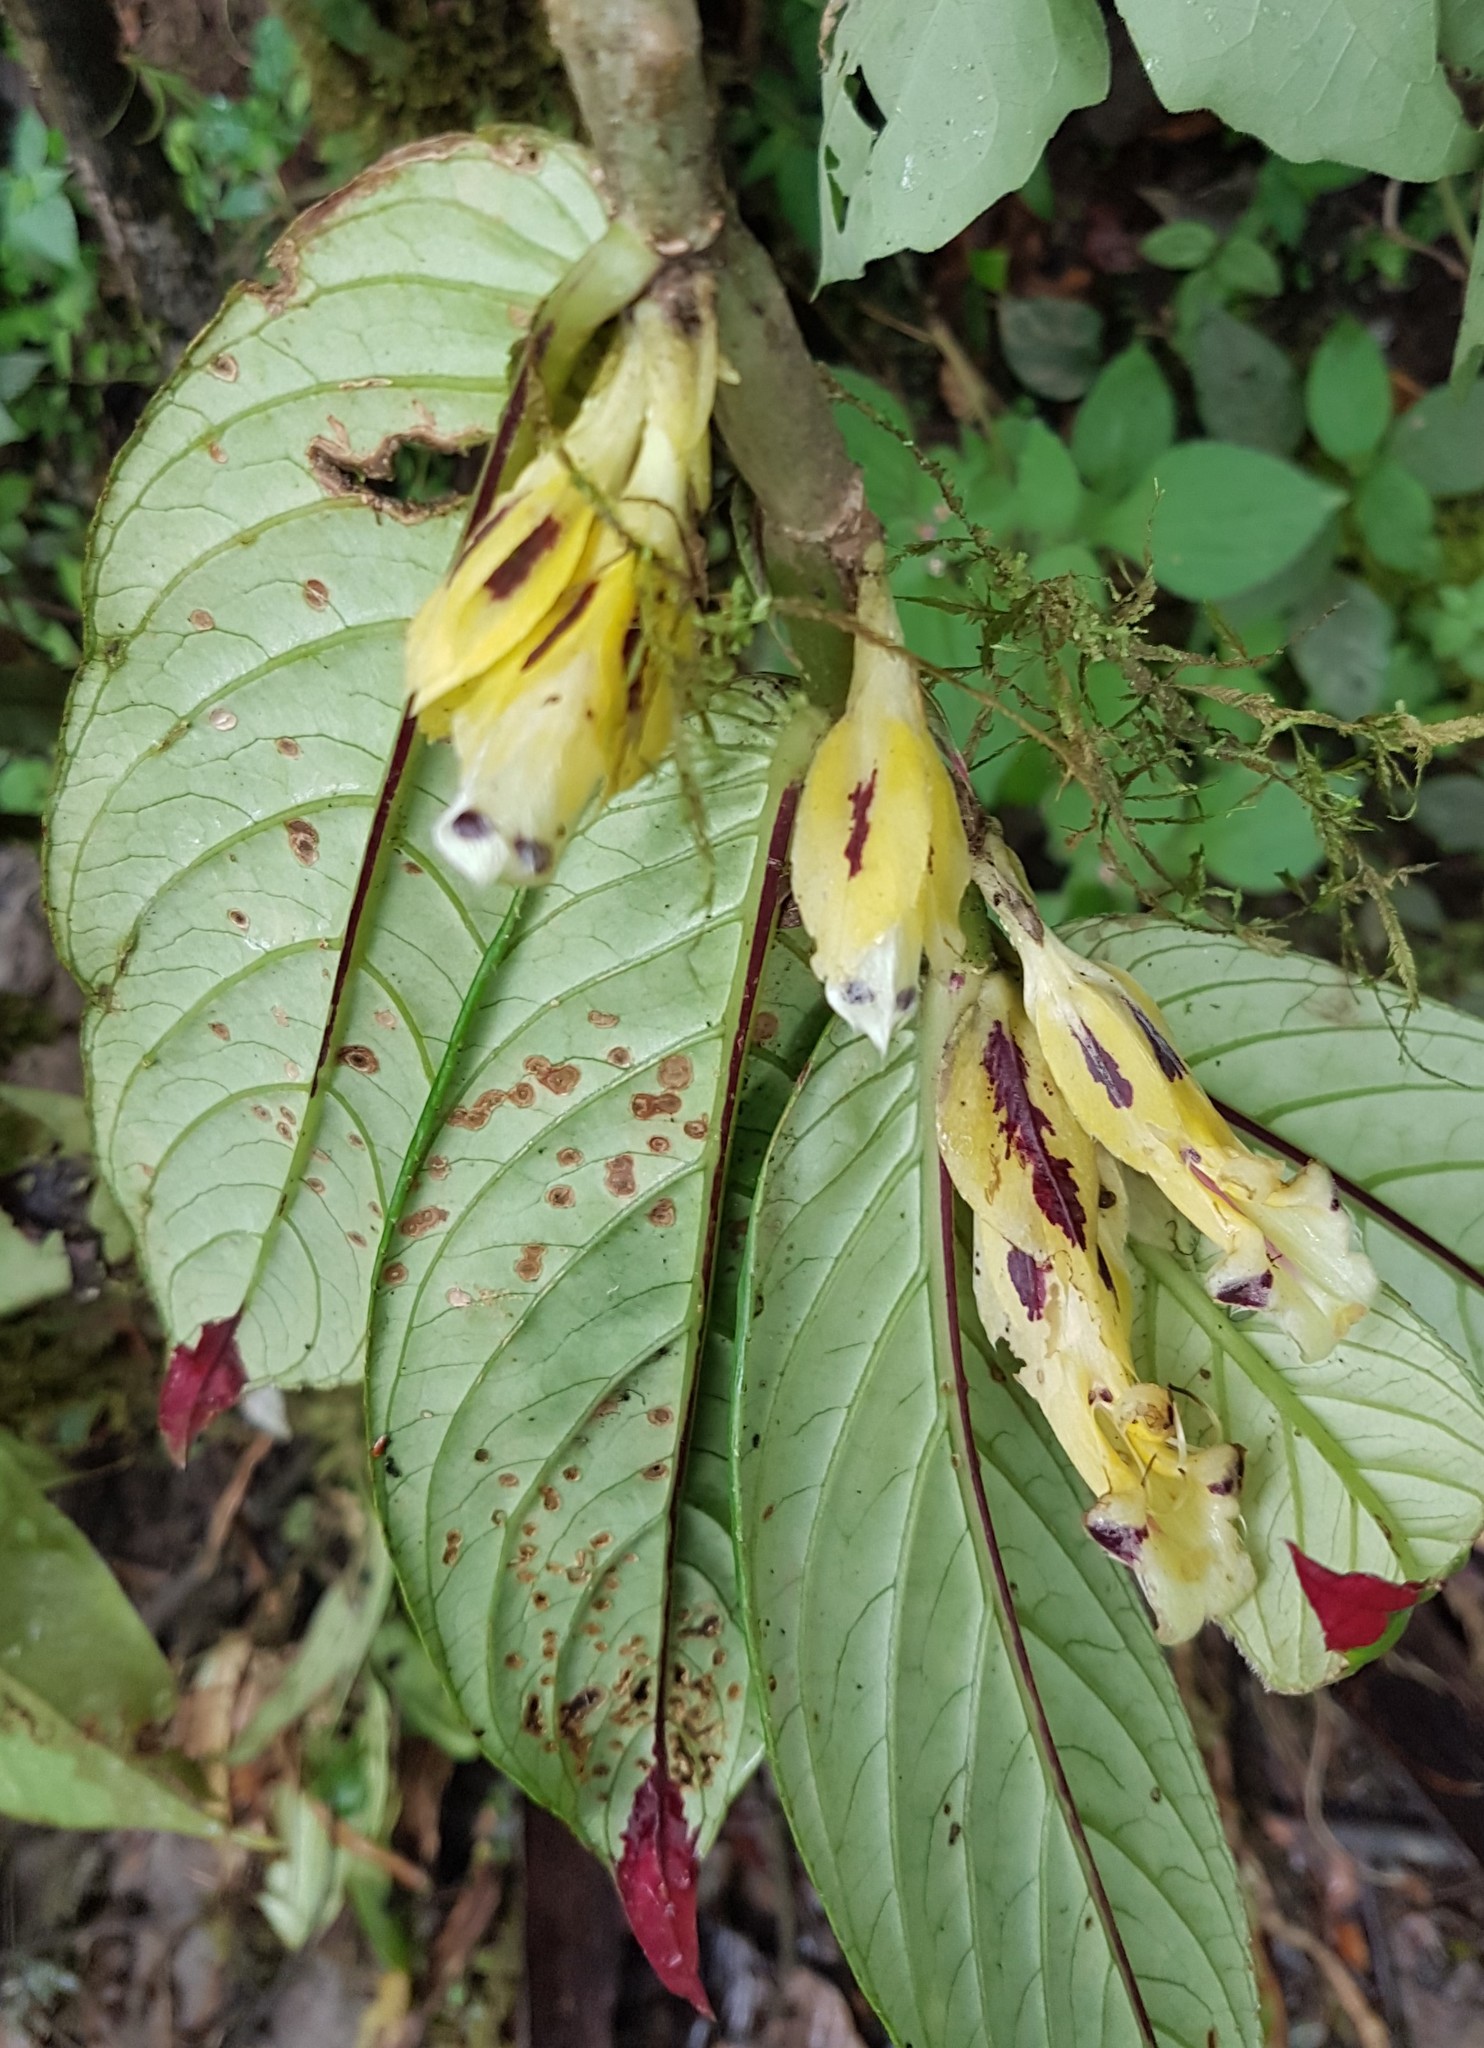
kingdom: Plantae
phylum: Tracheophyta
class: Magnoliopsida
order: Lamiales
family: Gesneriaceae
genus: Columnea
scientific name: Columnea picta
